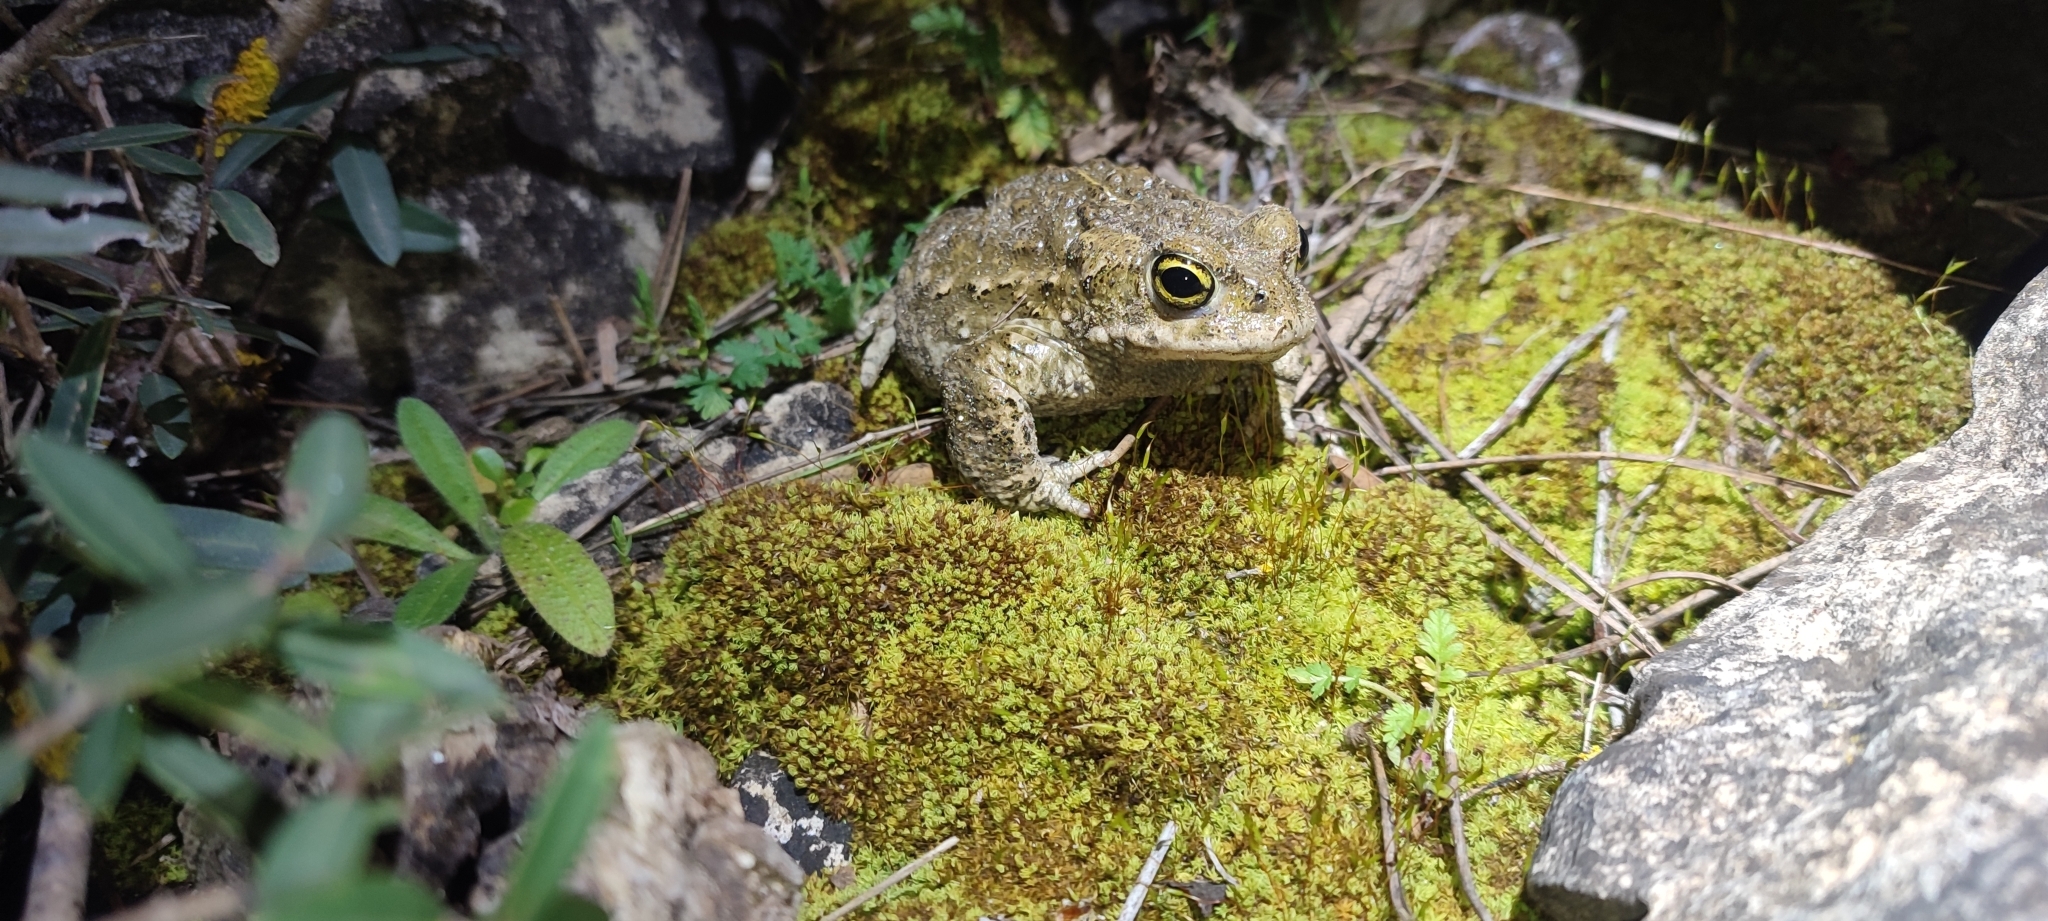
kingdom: Animalia
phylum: Chordata
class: Amphibia
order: Anura
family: Bufonidae
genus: Epidalea
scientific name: Epidalea calamita
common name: Natterjack toad
